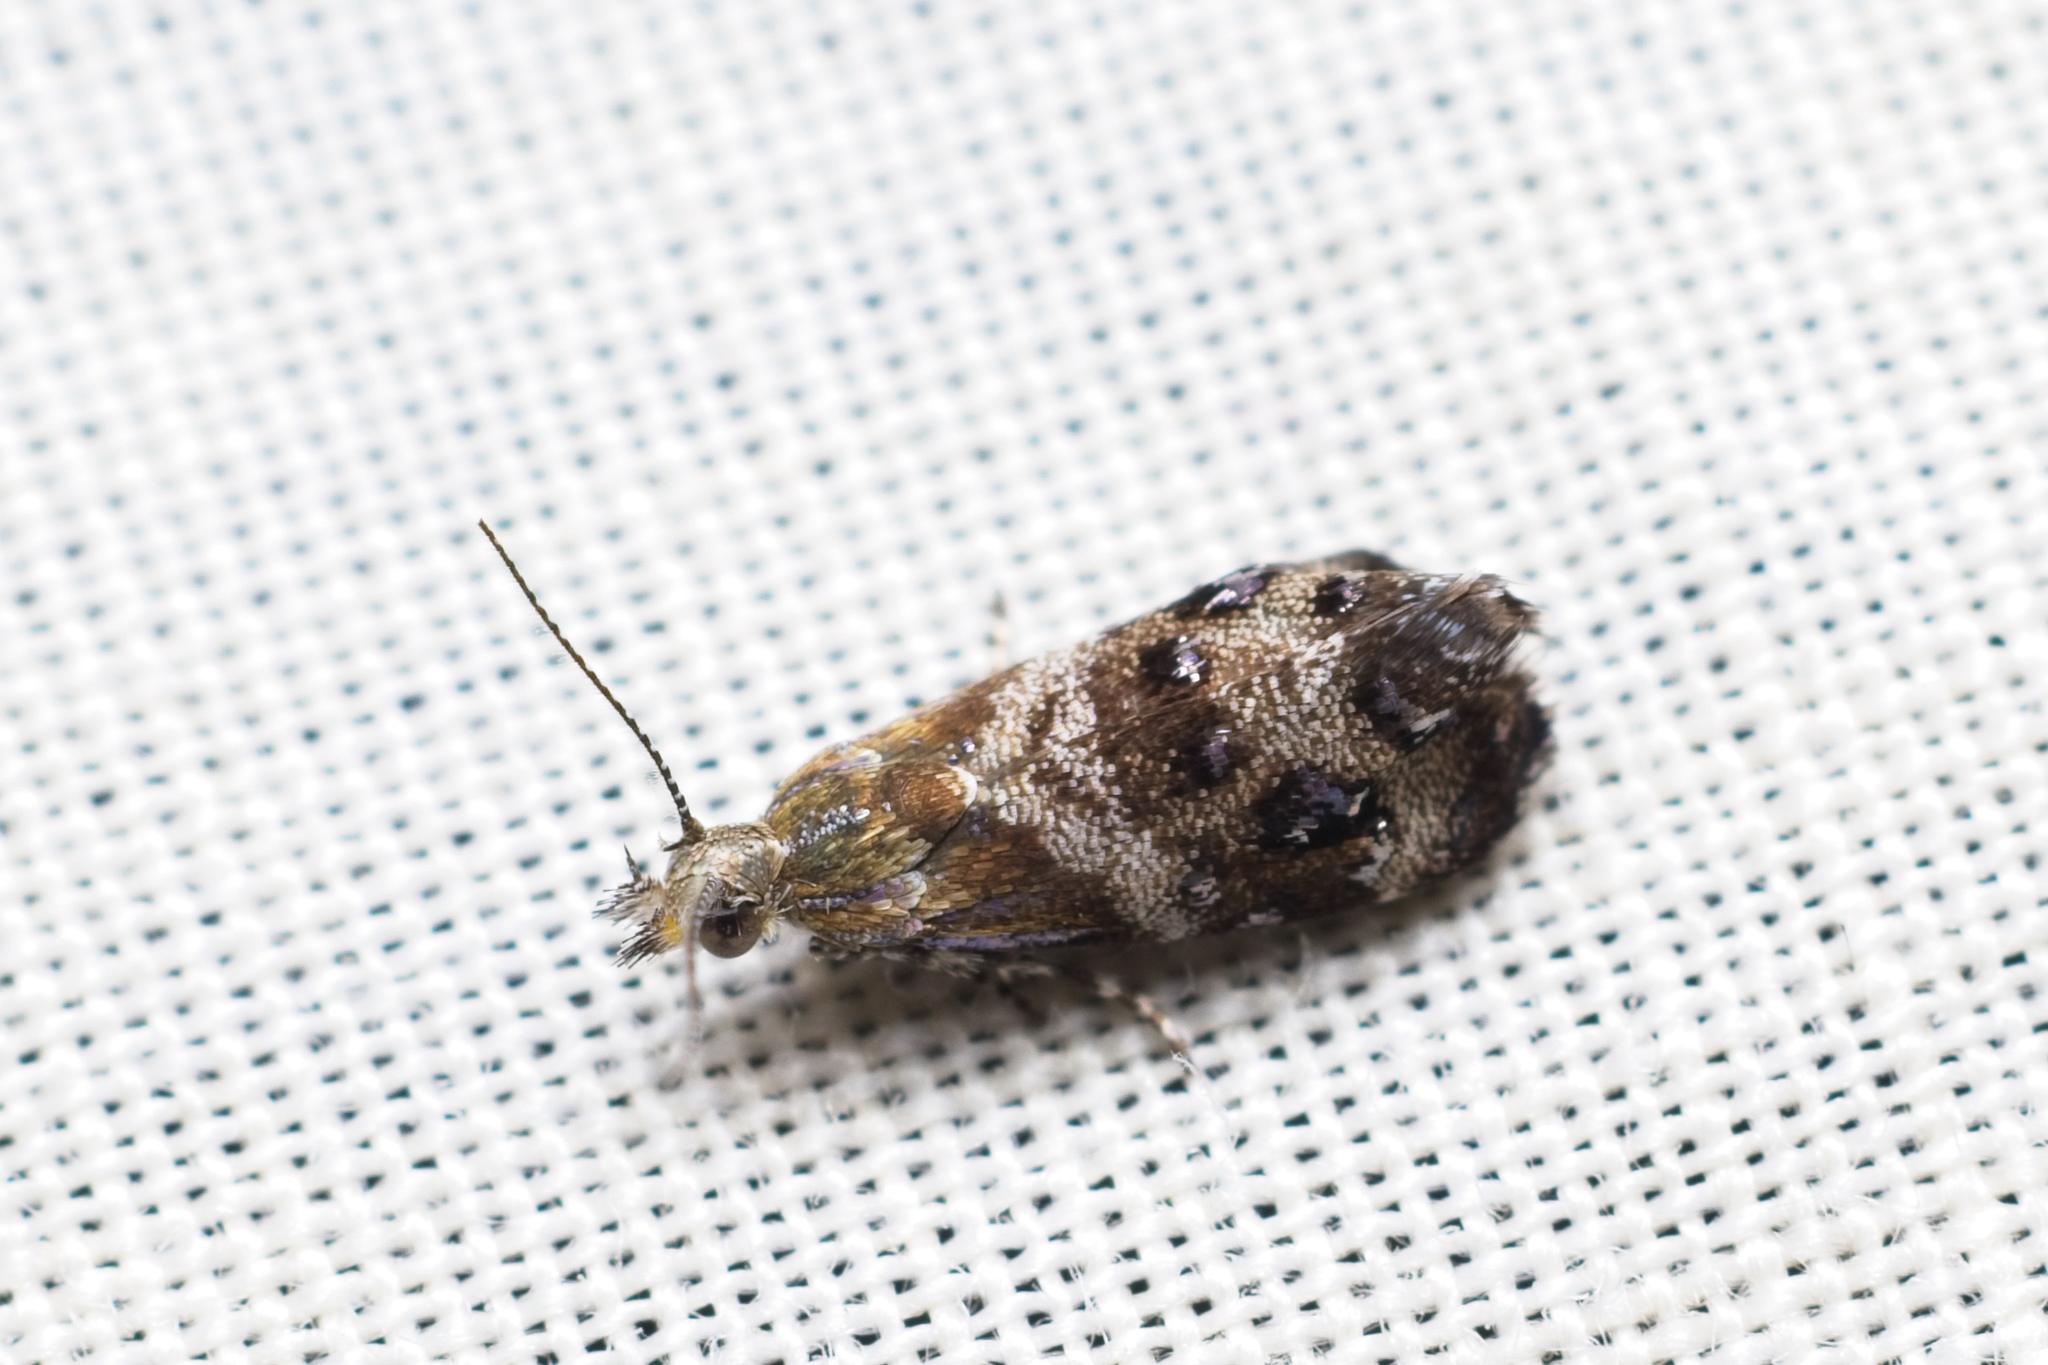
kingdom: Animalia
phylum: Arthropoda
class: Insecta
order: Lepidoptera
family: Choreutidae
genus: Tebenna
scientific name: Tebenna micalis
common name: Vagrant twitcher
